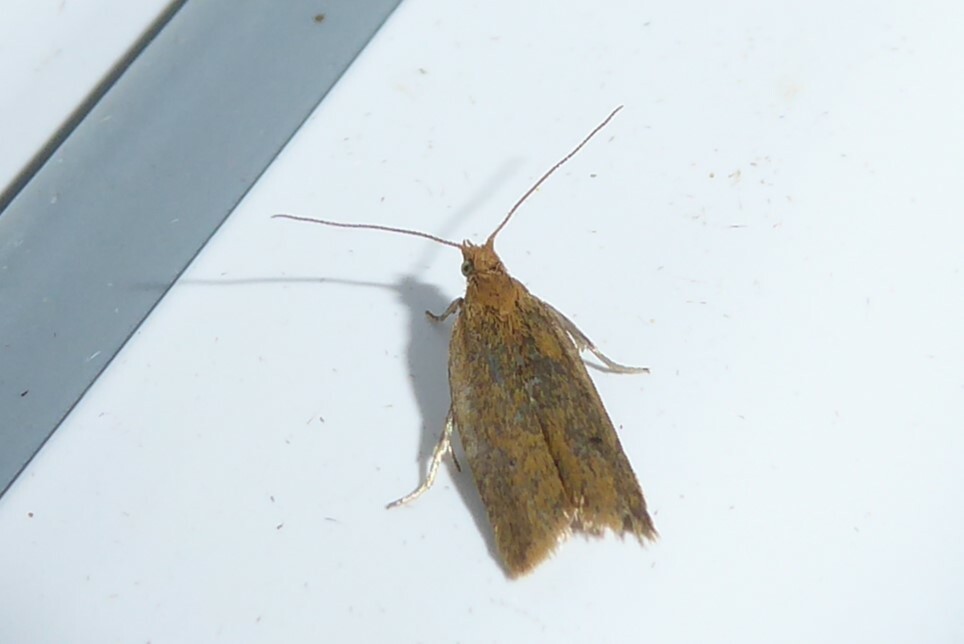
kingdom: Animalia
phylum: Arthropoda
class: Insecta
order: Lepidoptera
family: Tortricidae
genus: Epichorista
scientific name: Epichorista siriana
